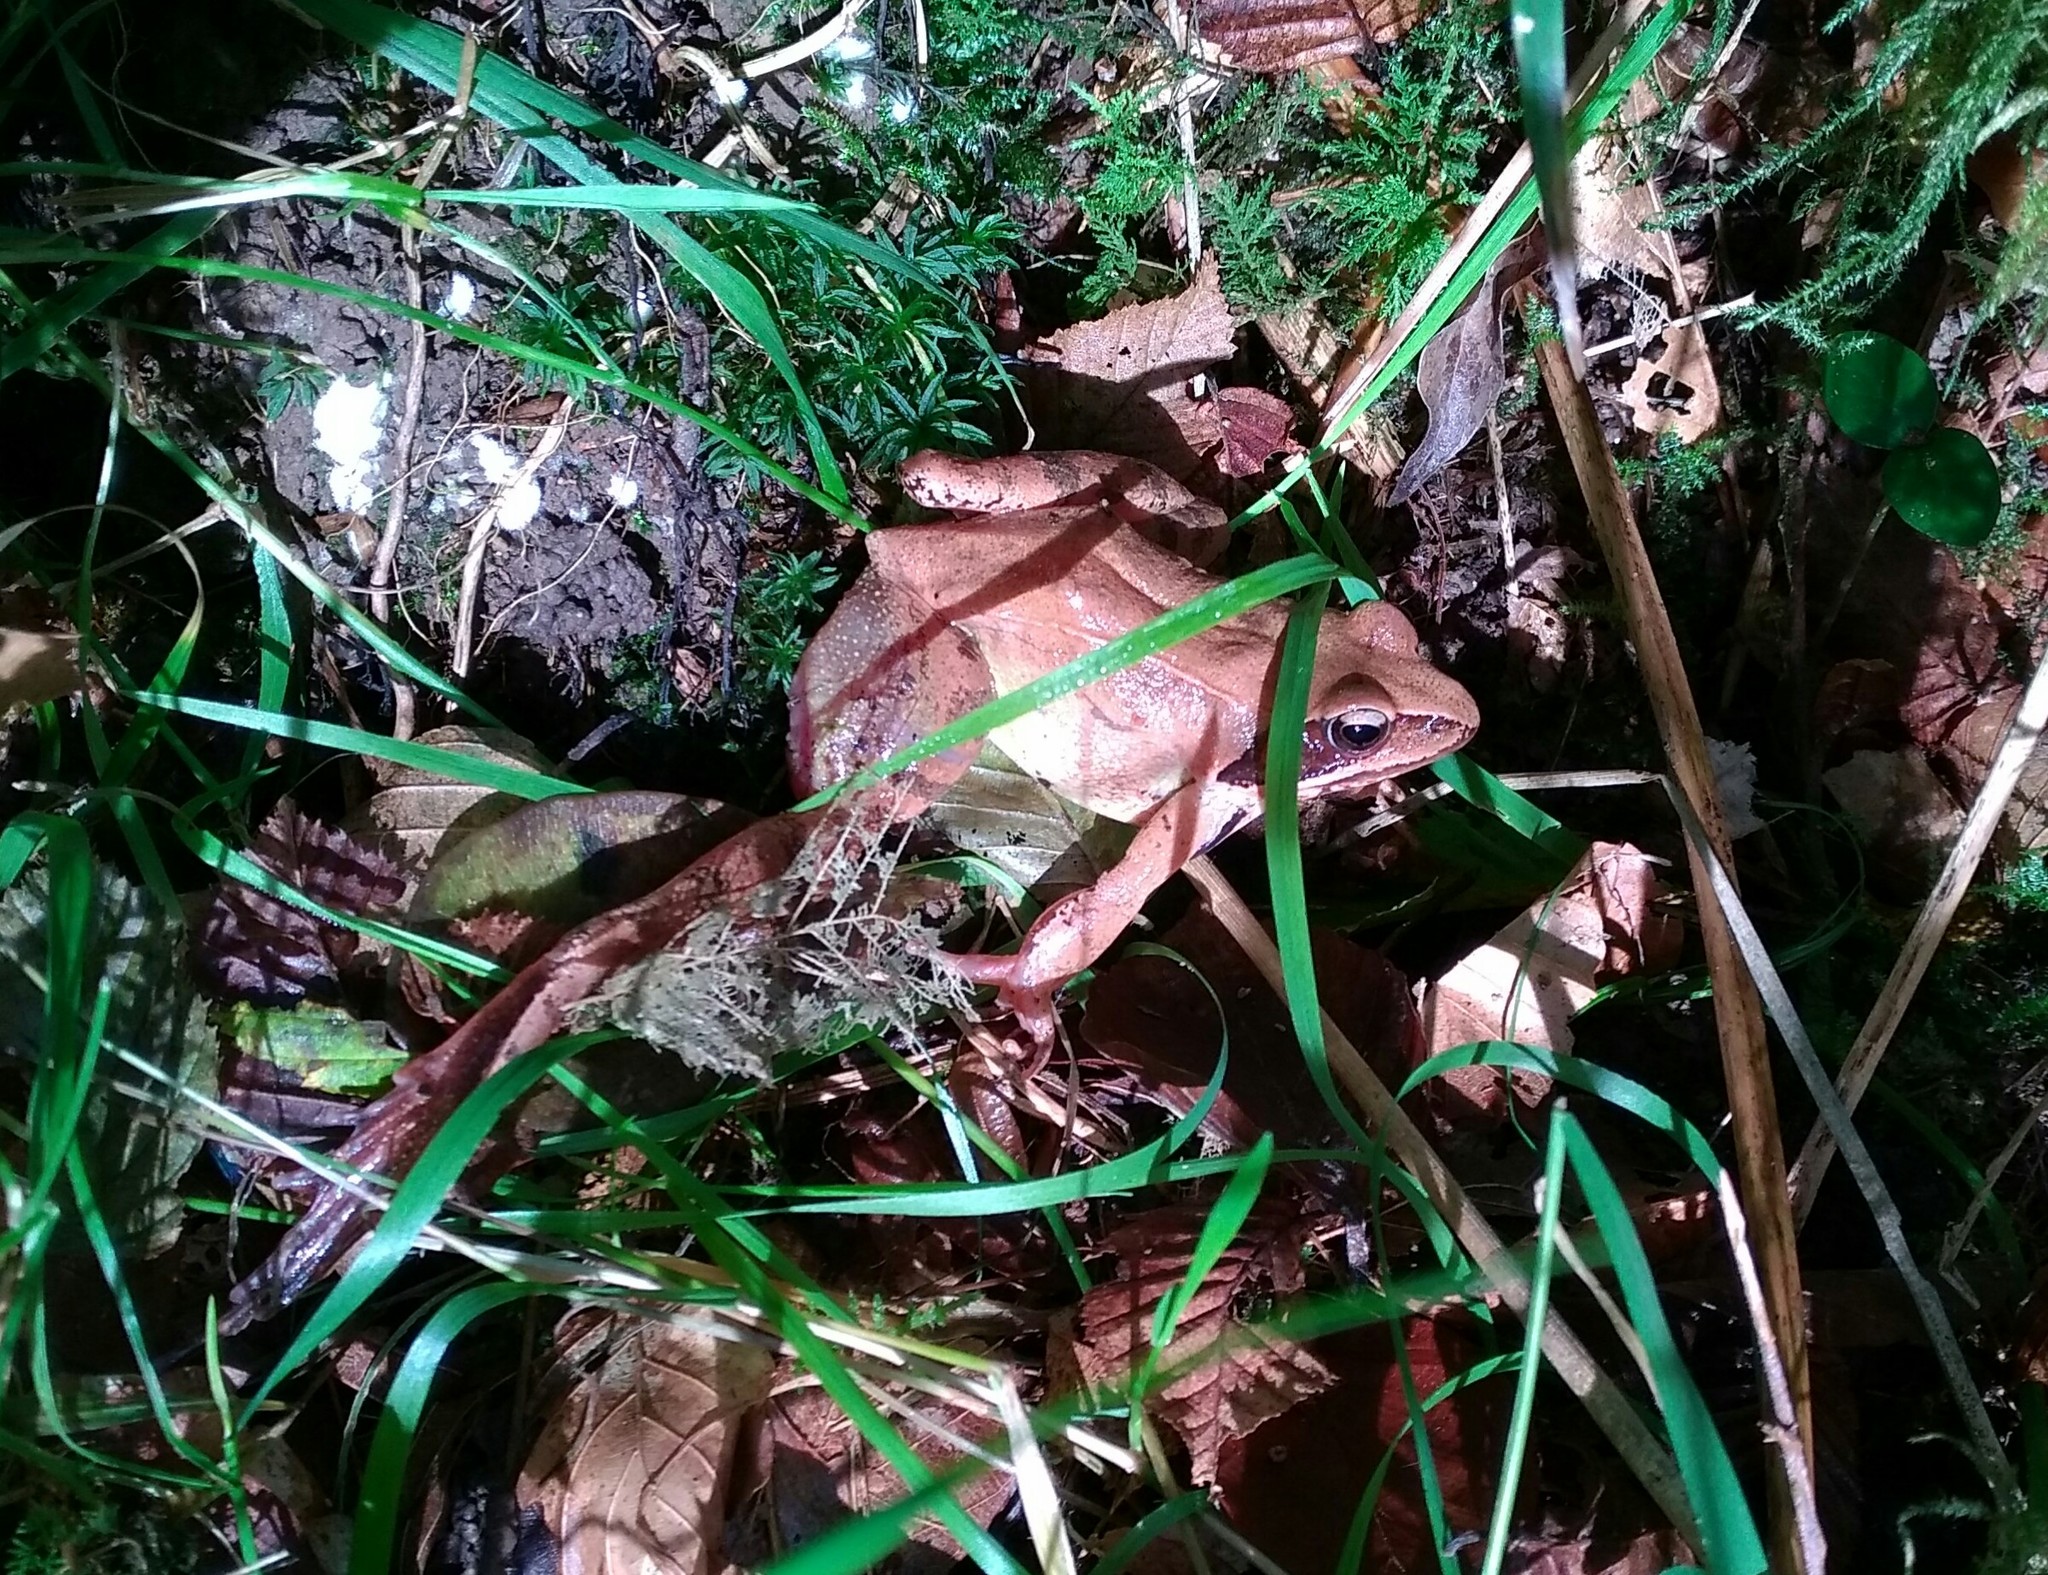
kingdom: Animalia
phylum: Chordata
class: Amphibia
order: Anura
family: Ranidae
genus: Rana
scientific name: Rana dalmatina
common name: Agile frog
